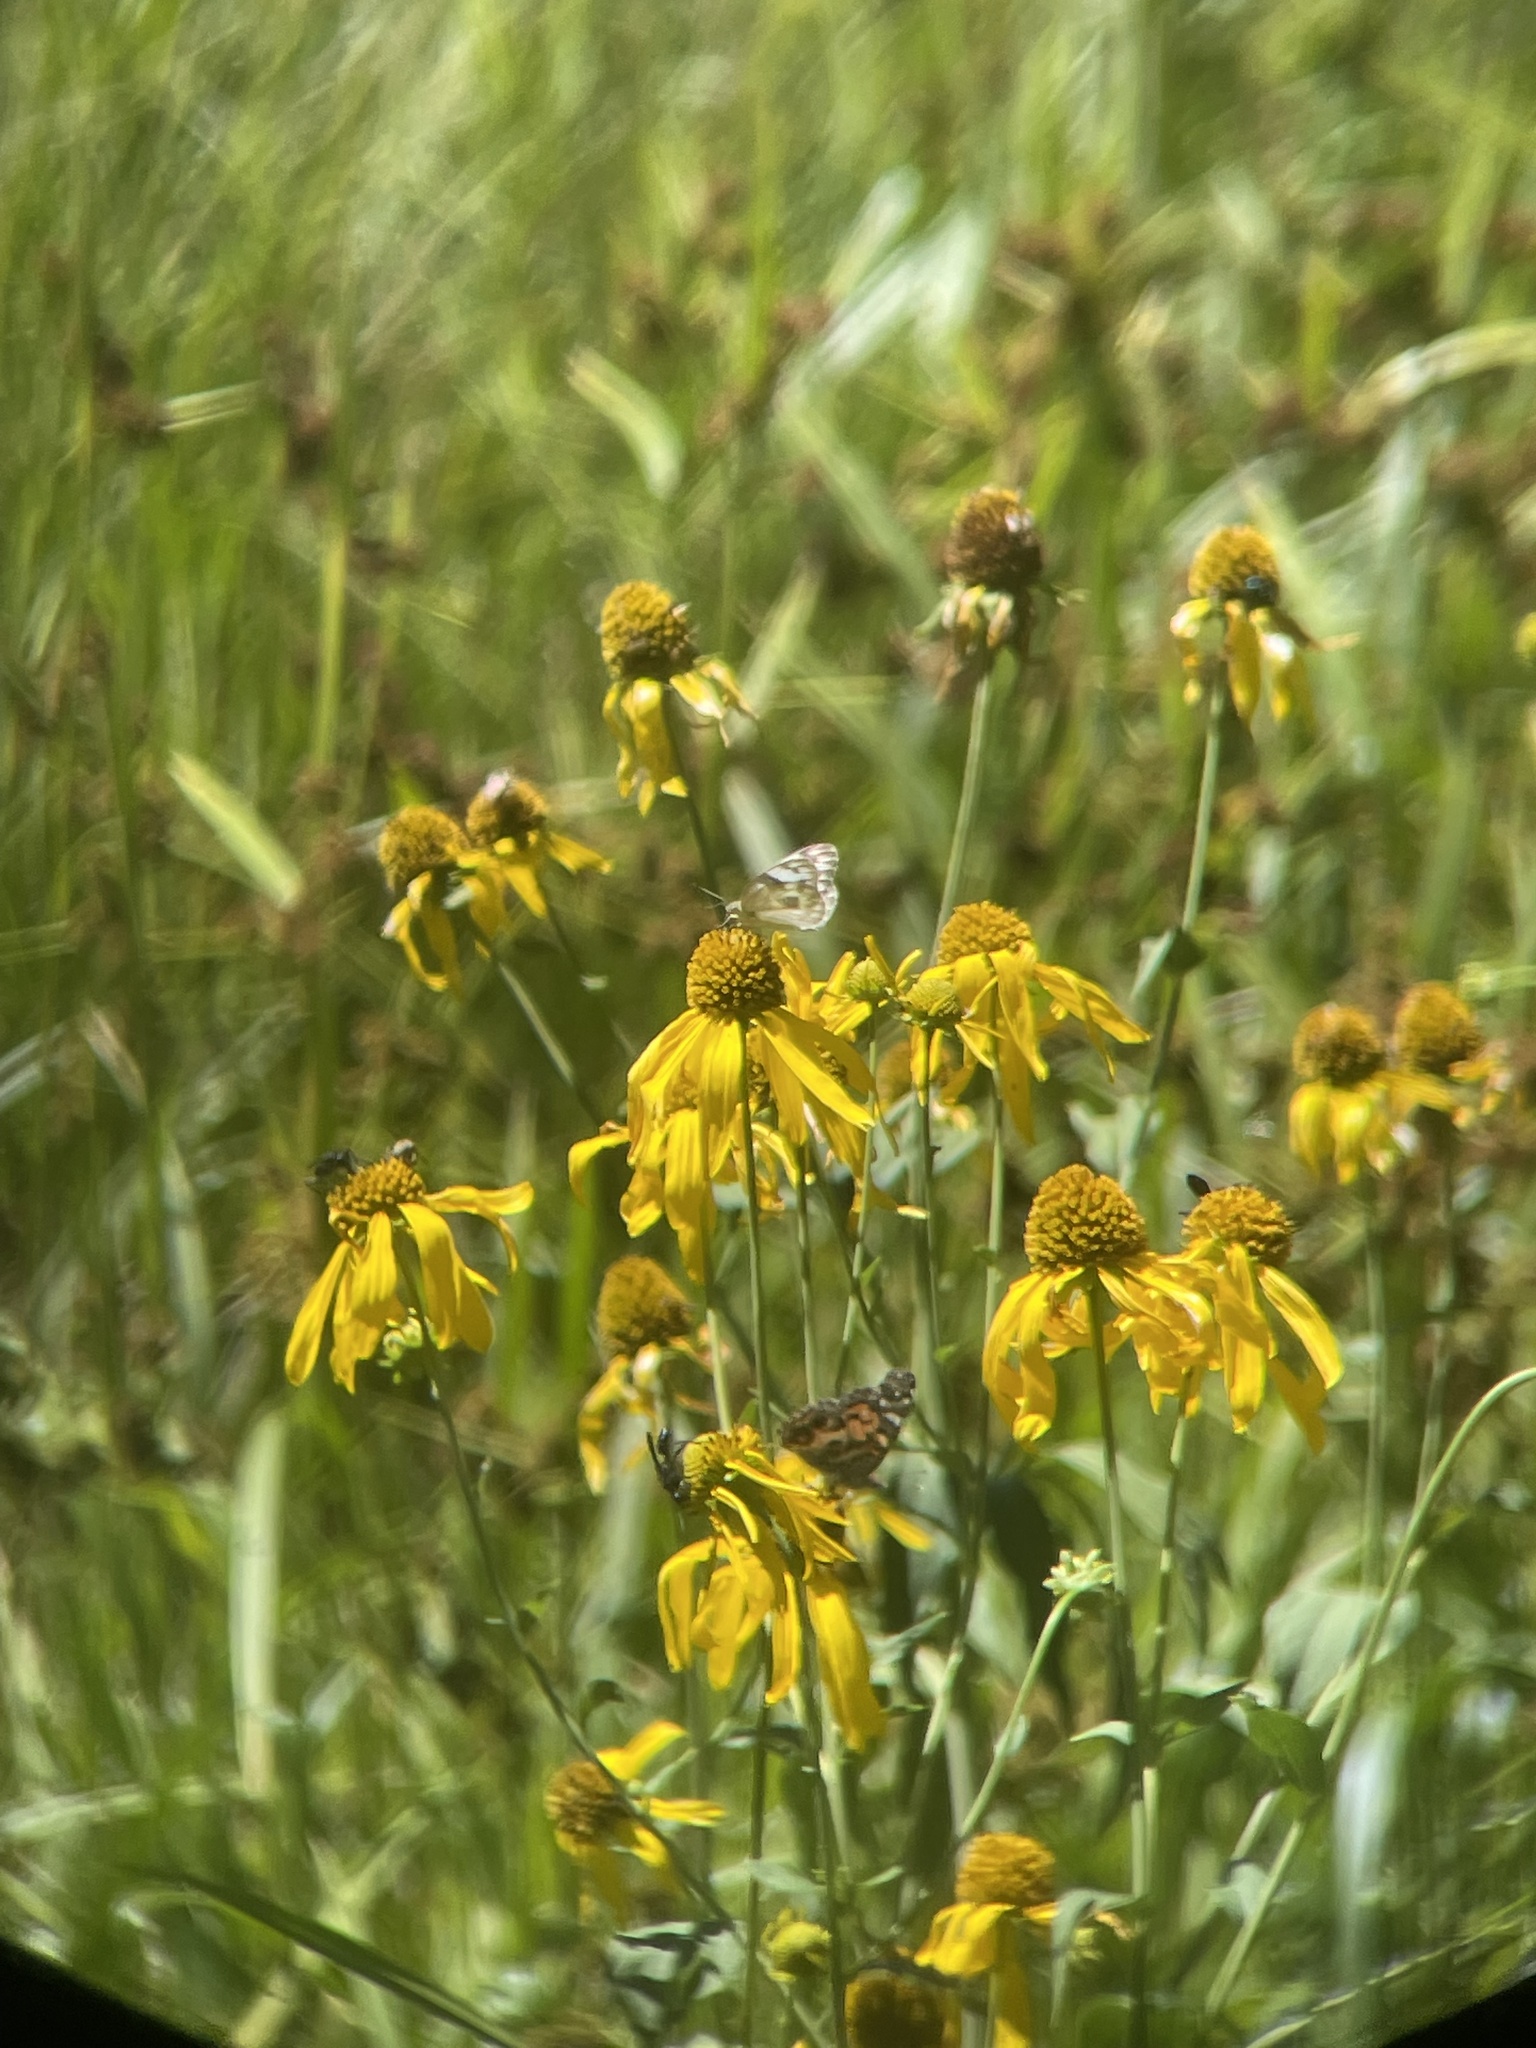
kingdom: Animalia
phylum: Arthropoda
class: Insecta
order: Lepidoptera
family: Pieridae
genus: Pontia
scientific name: Pontia protodice
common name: Checkered white
